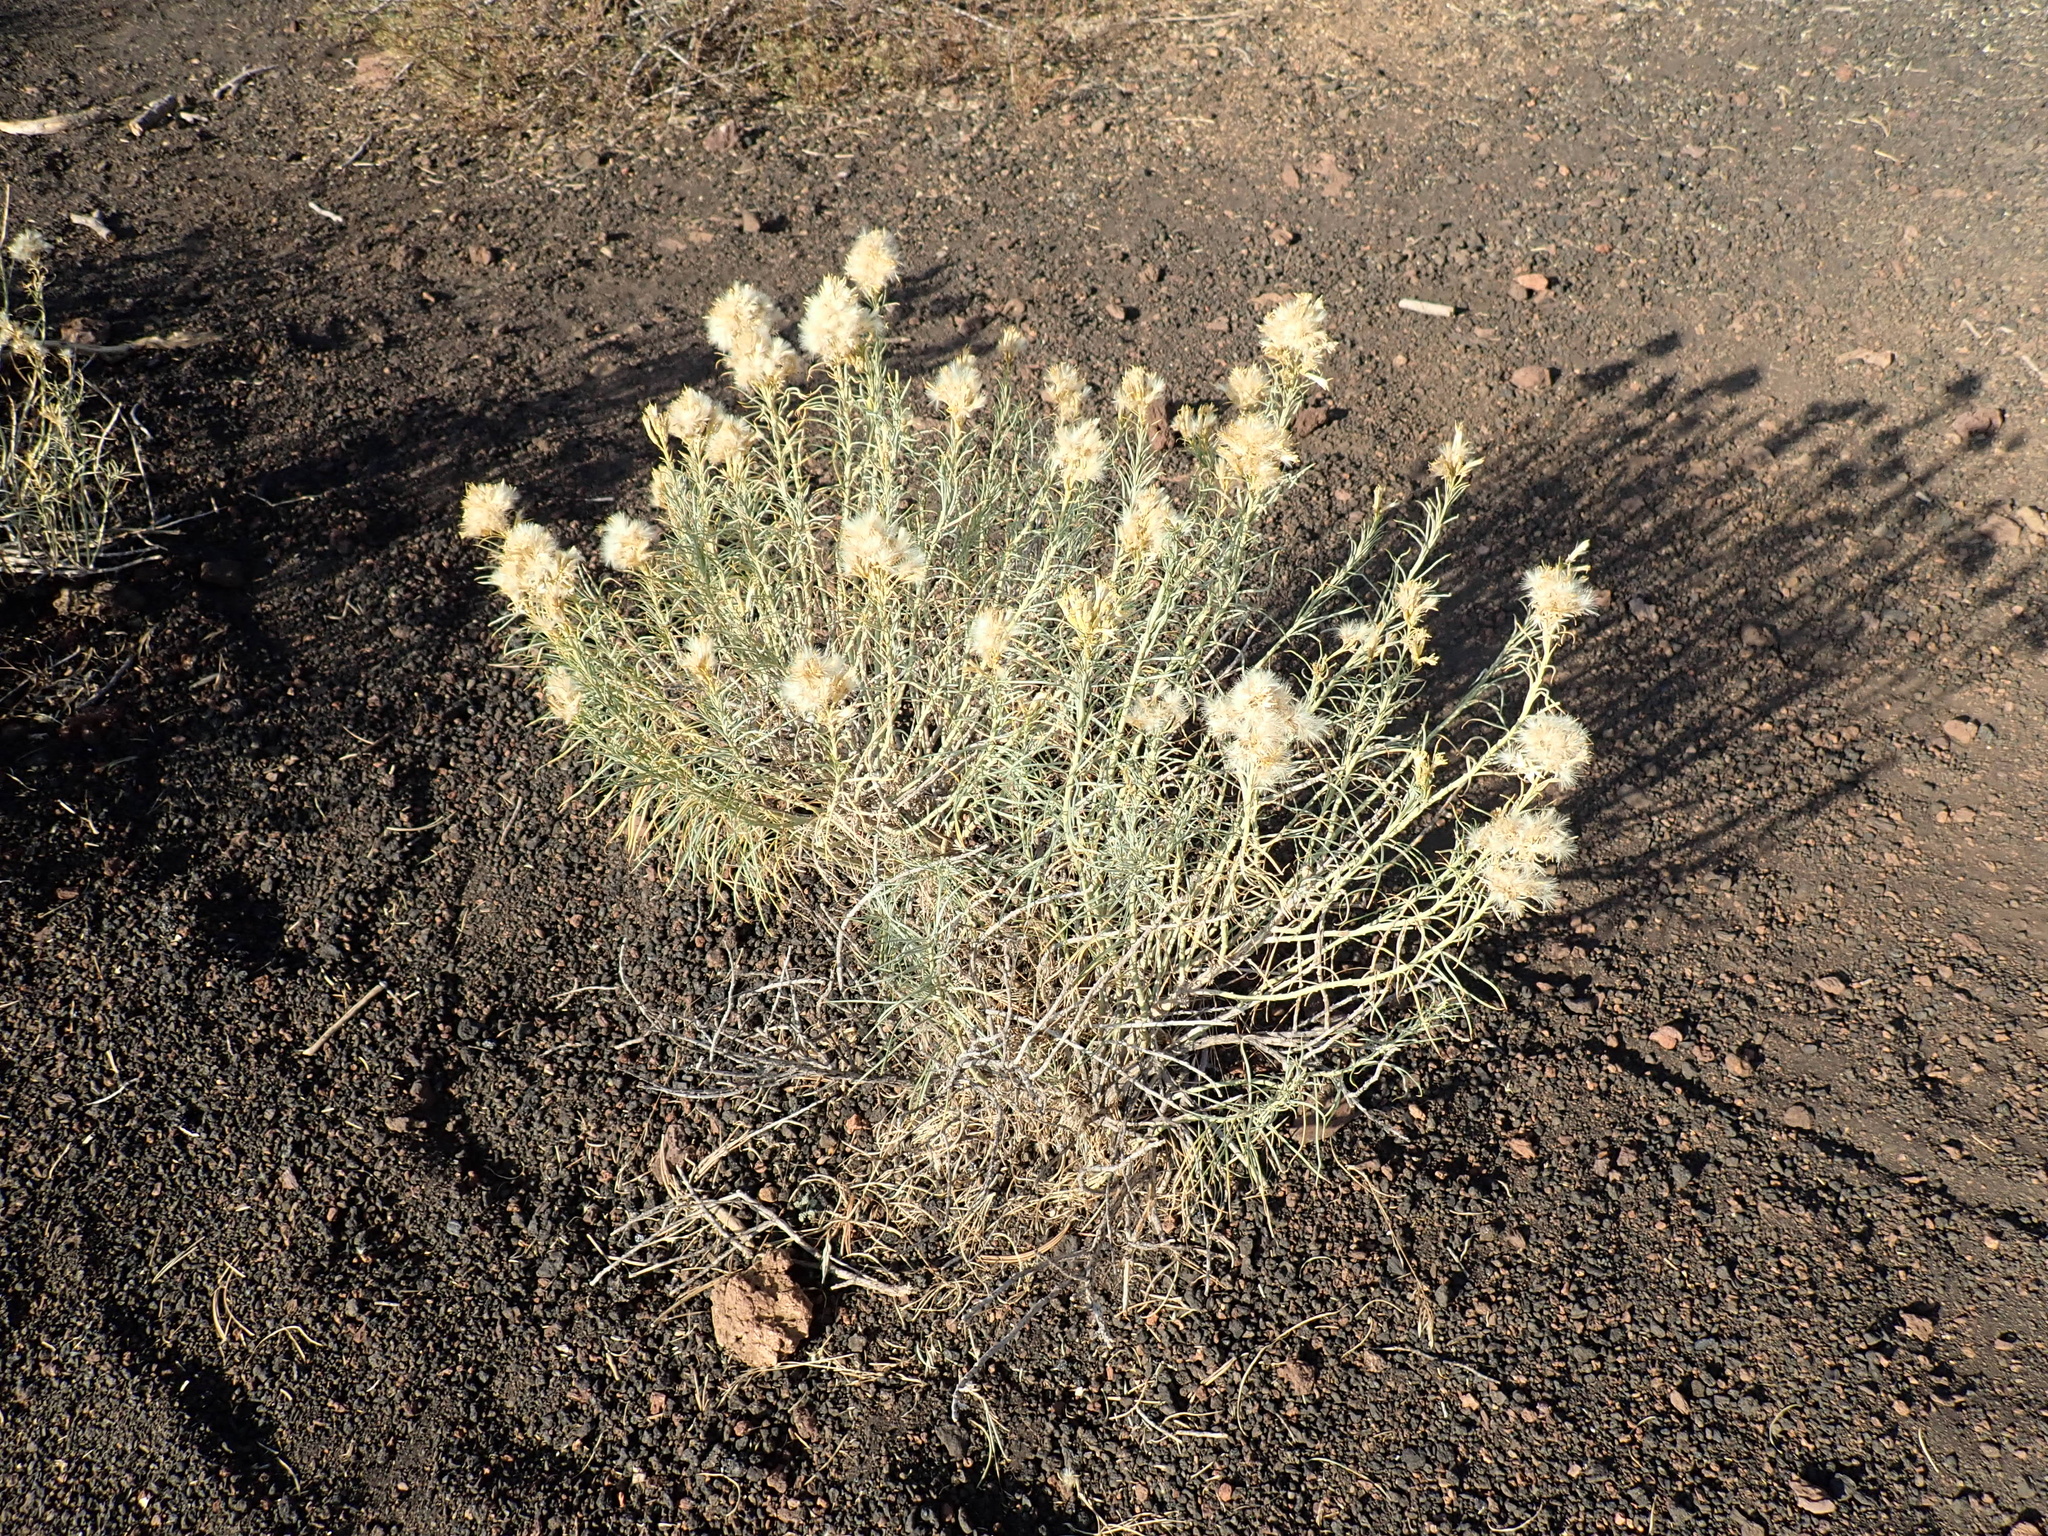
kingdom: Plantae
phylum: Tracheophyta
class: Magnoliopsida
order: Asterales
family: Asteraceae
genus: Ericameria
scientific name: Ericameria nauseosa
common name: Rubber rabbitbrush
